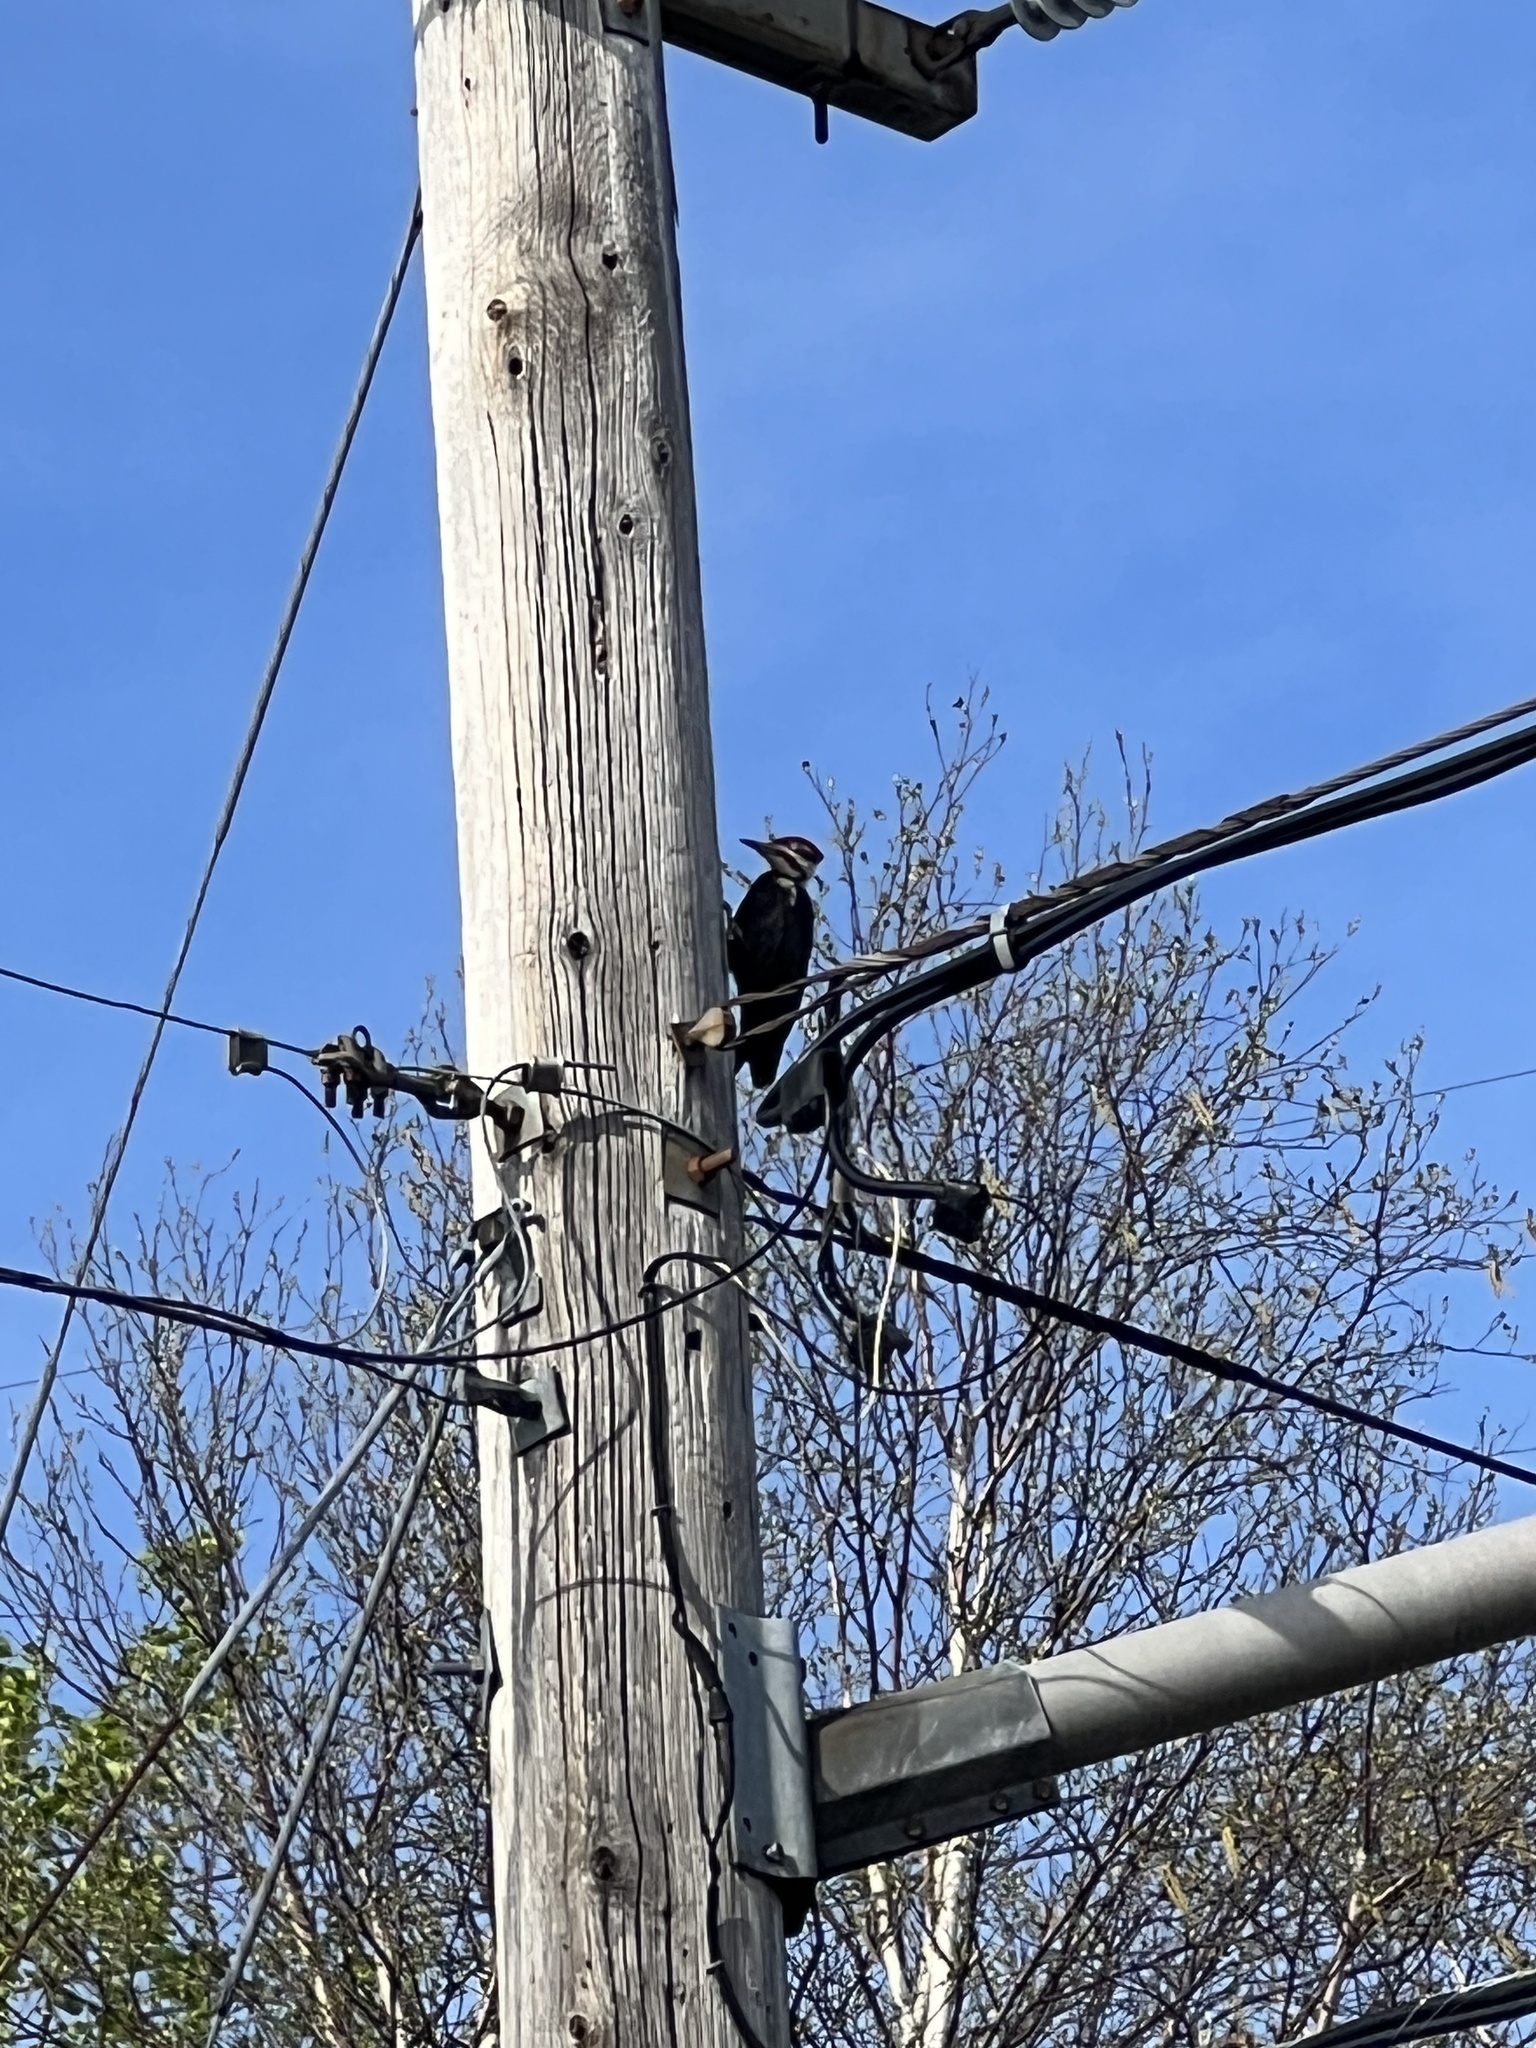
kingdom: Animalia
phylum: Chordata
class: Aves
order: Piciformes
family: Picidae
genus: Dryocopus
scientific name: Dryocopus pileatus
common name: Pileated woodpecker
